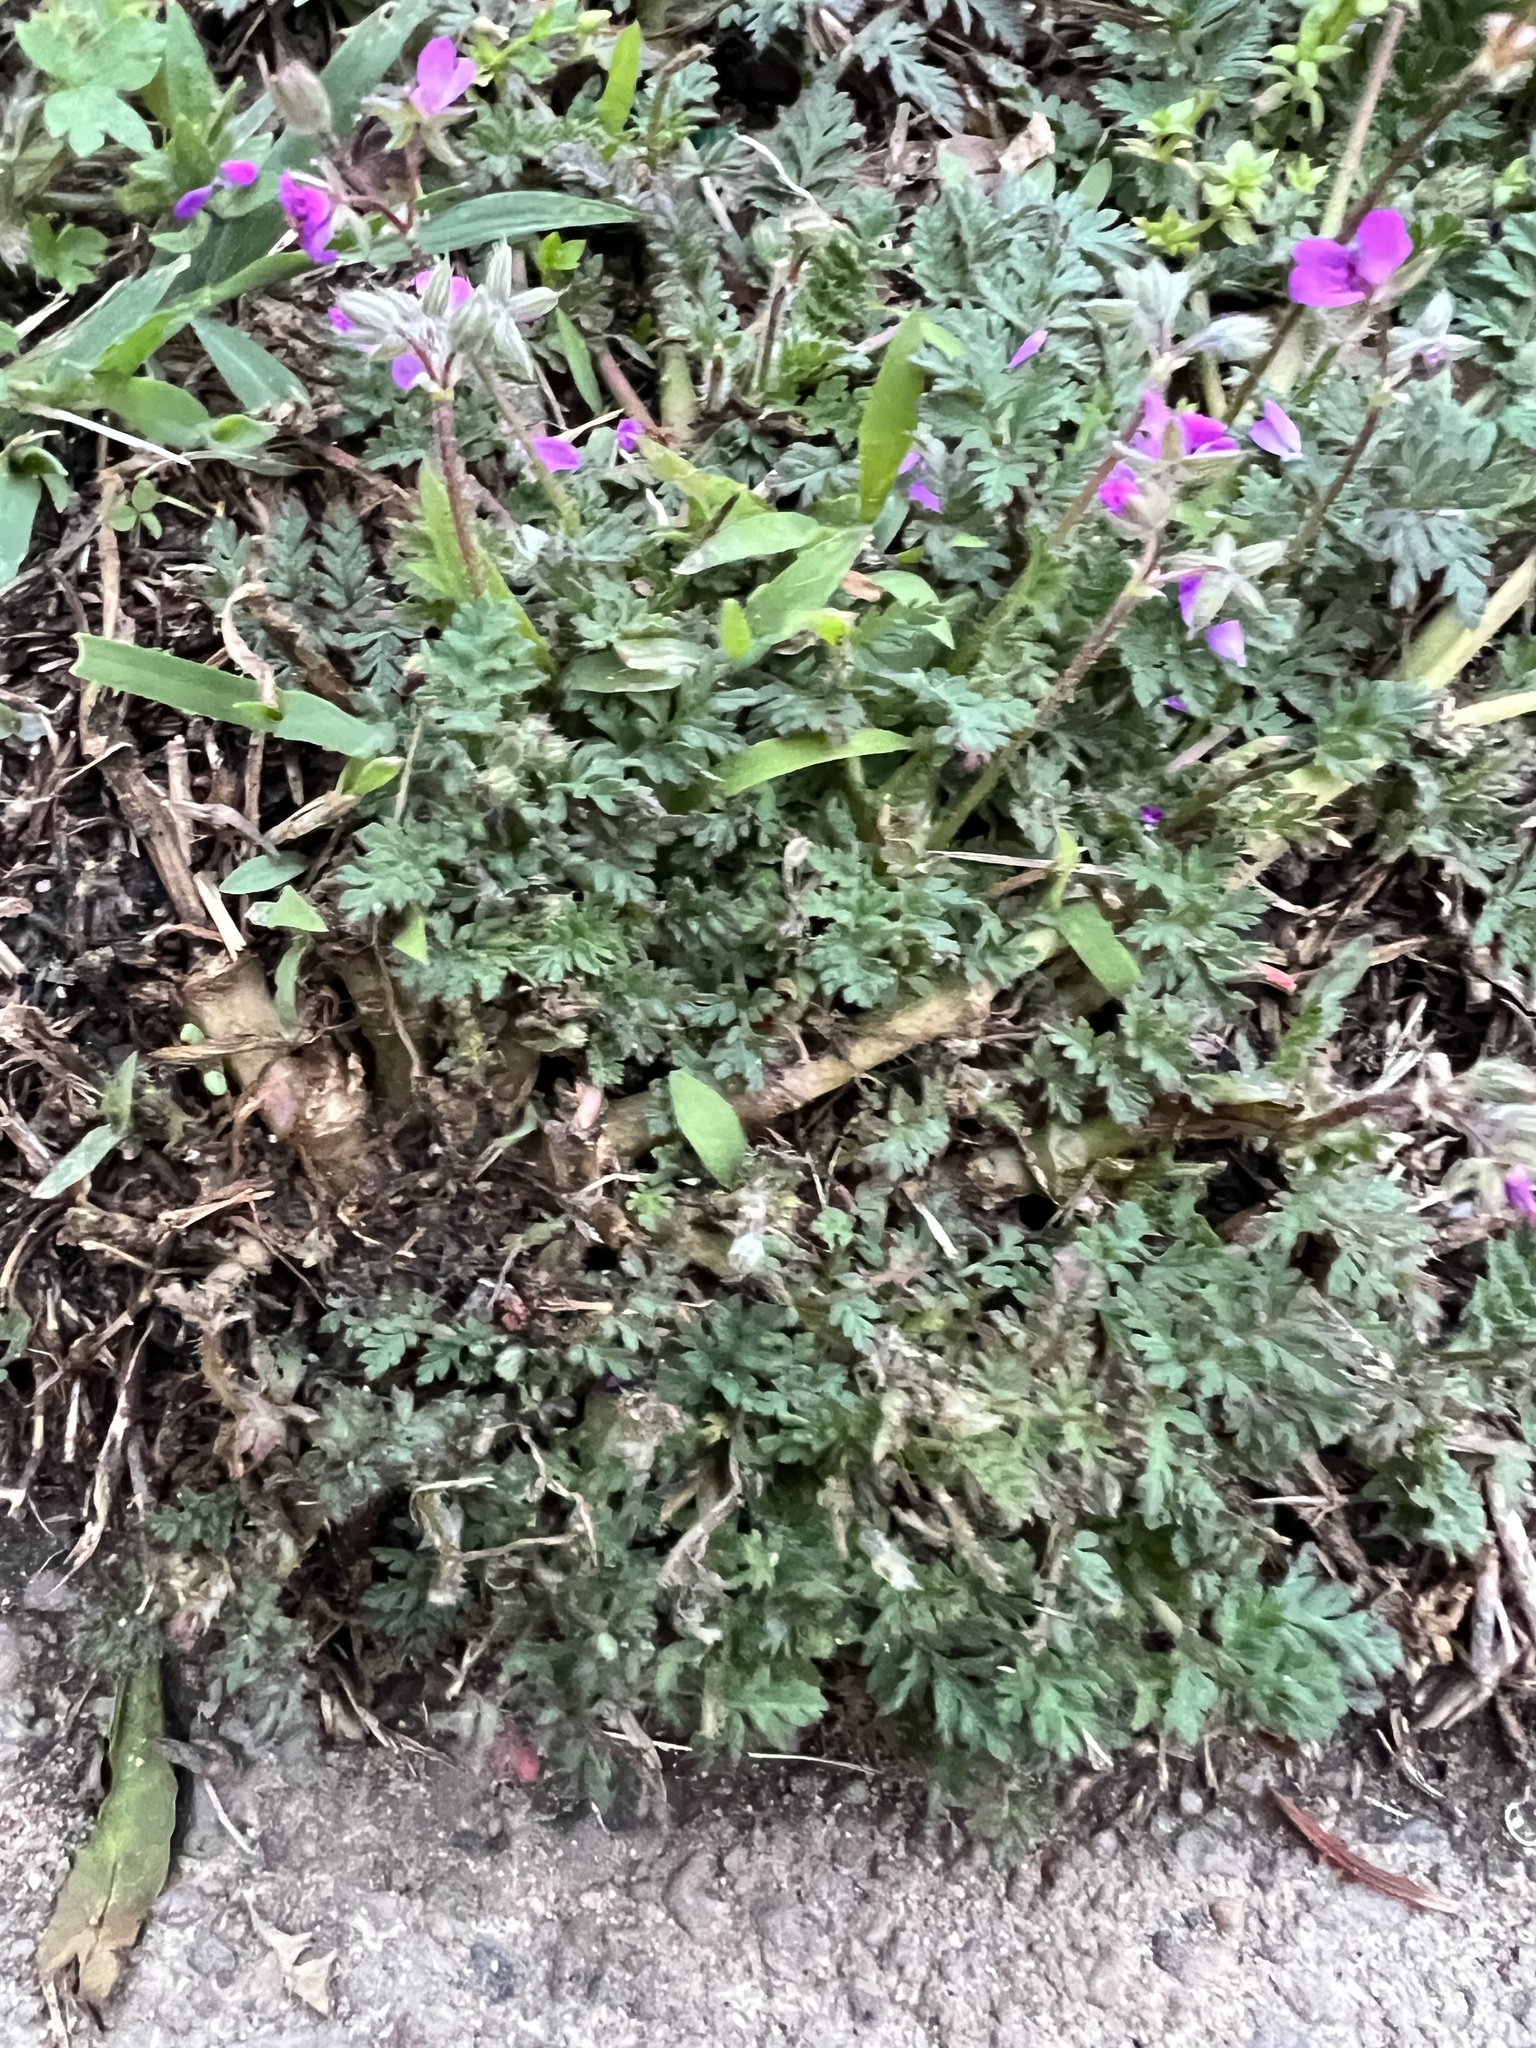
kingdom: Plantae
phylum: Tracheophyta
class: Magnoliopsida
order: Geraniales
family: Geraniaceae
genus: Erodium
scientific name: Erodium cicutarium
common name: Common stork's-bill
